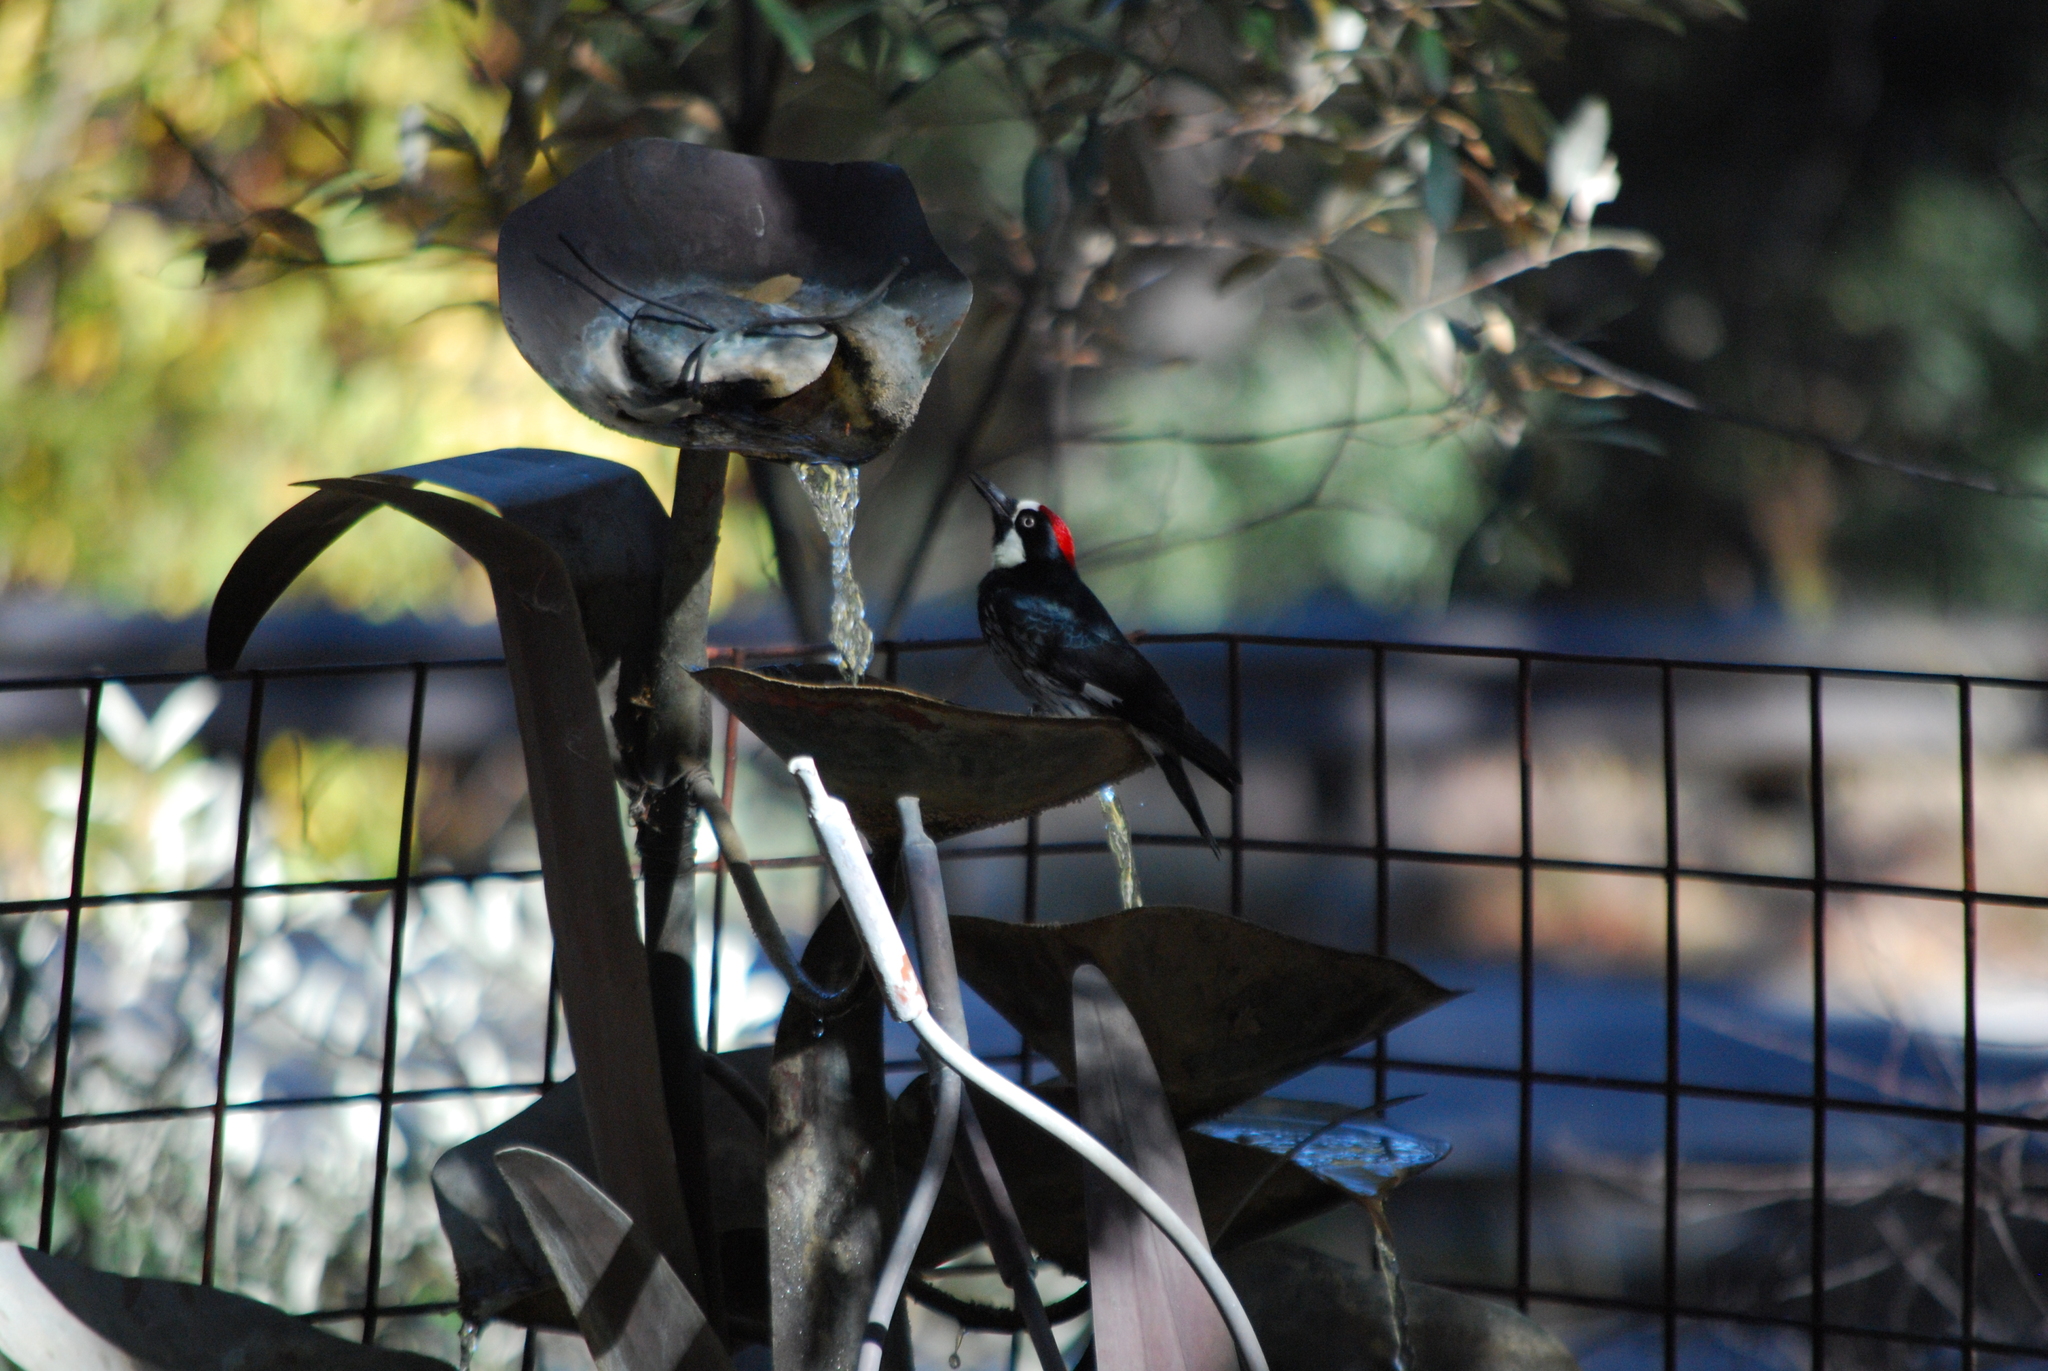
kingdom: Animalia
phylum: Chordata
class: Aves
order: Piciformes
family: Picidae
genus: Melanerpes
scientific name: Melanerpes formicivorus
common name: Acorn woodpecker
